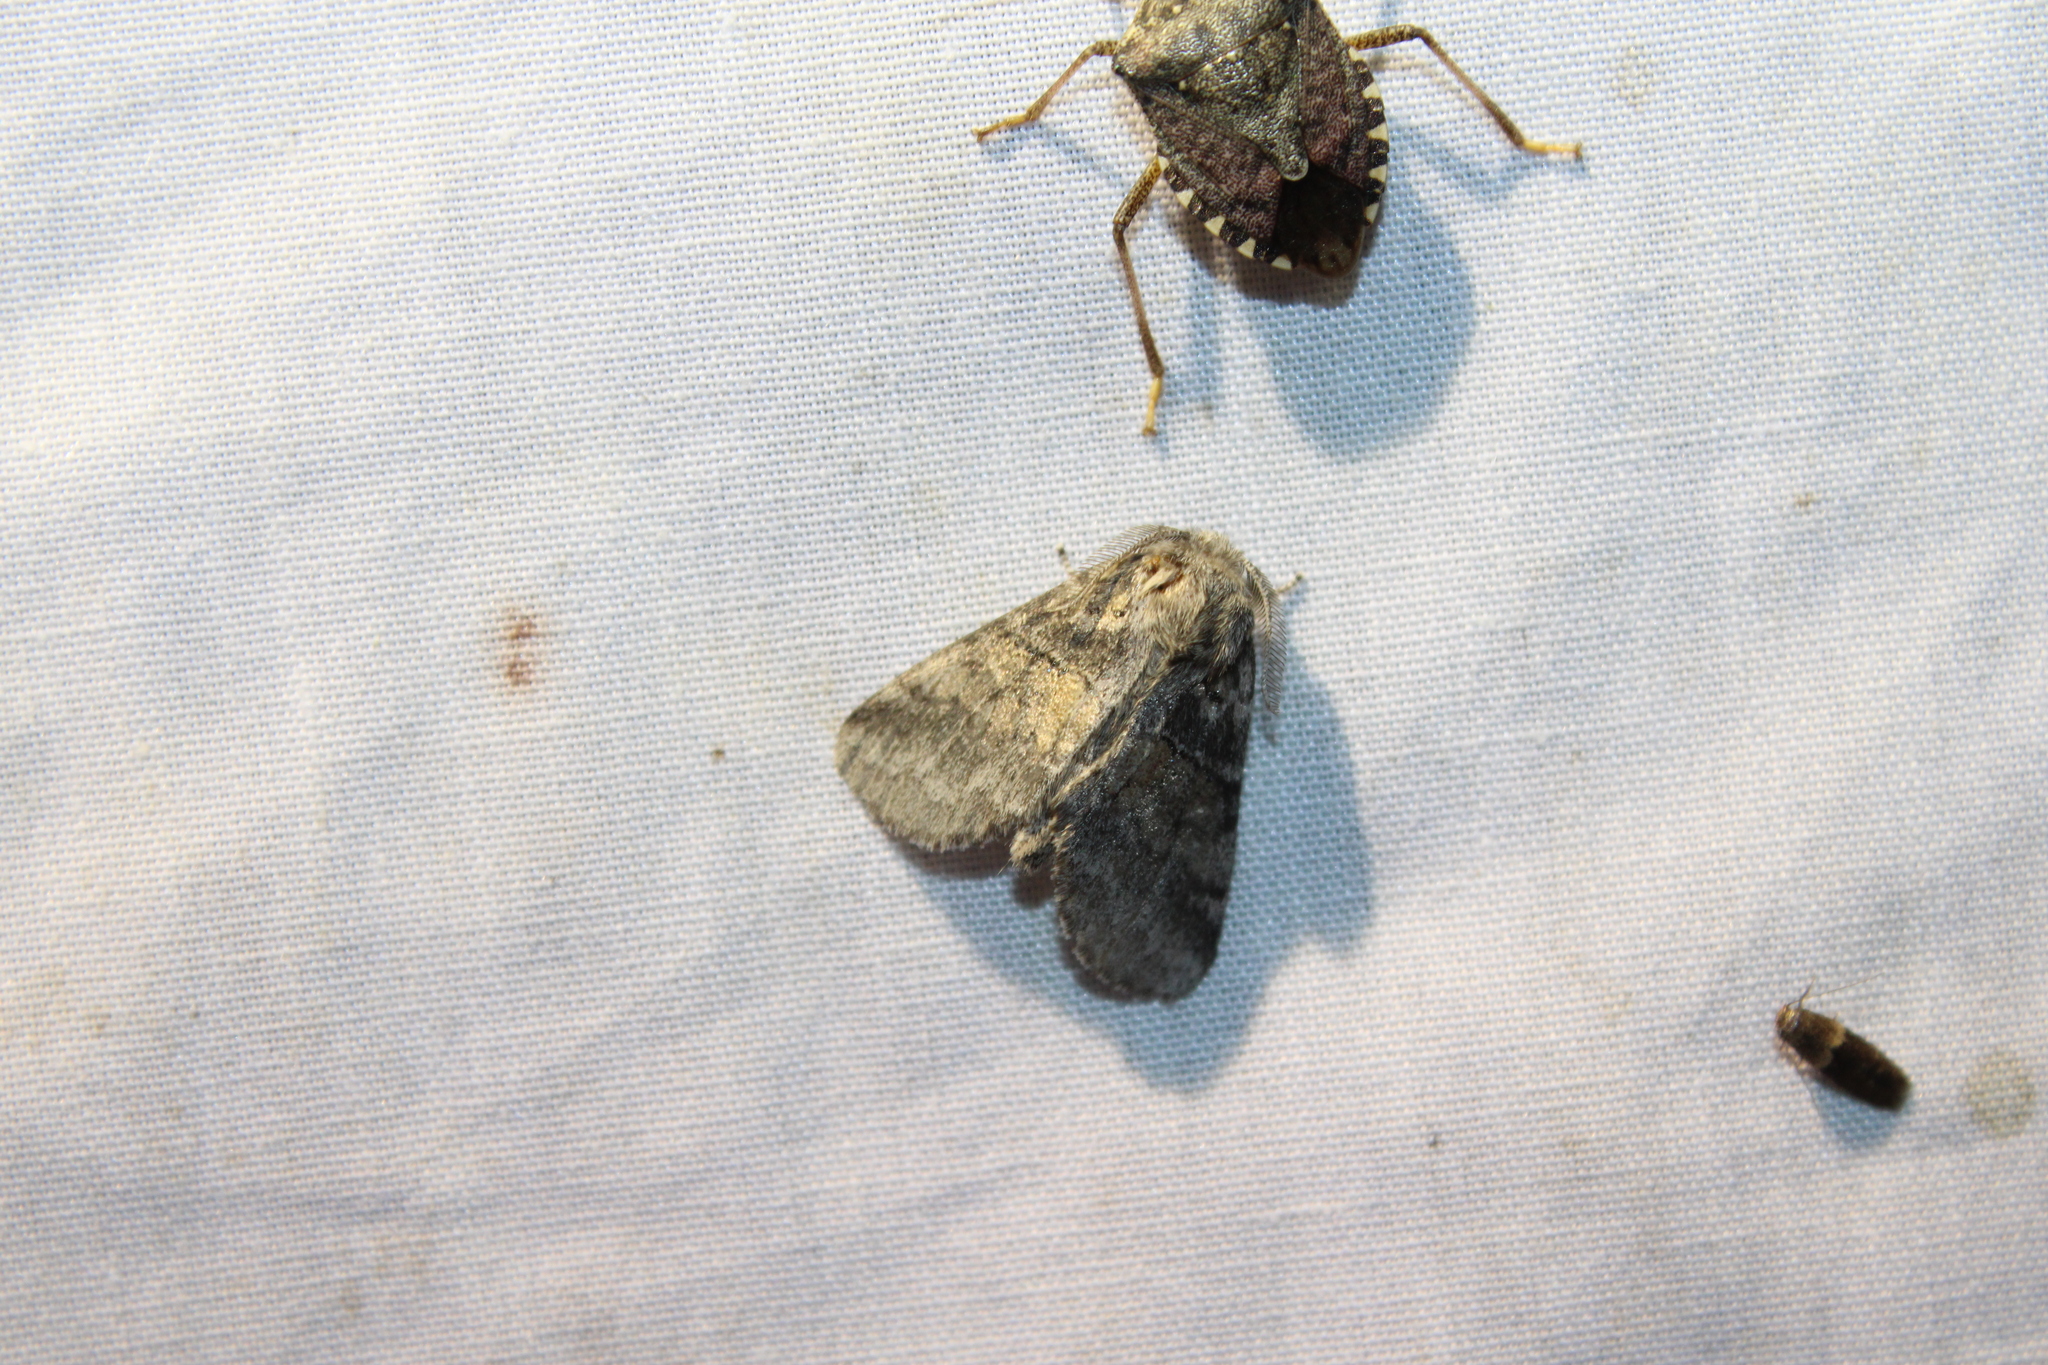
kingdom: Animalia
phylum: Arthropoda
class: Insecta
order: Lepidoptera
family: Notodontidae
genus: Gluphisia
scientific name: Gluphisia septentrionis
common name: Common gluphisia
